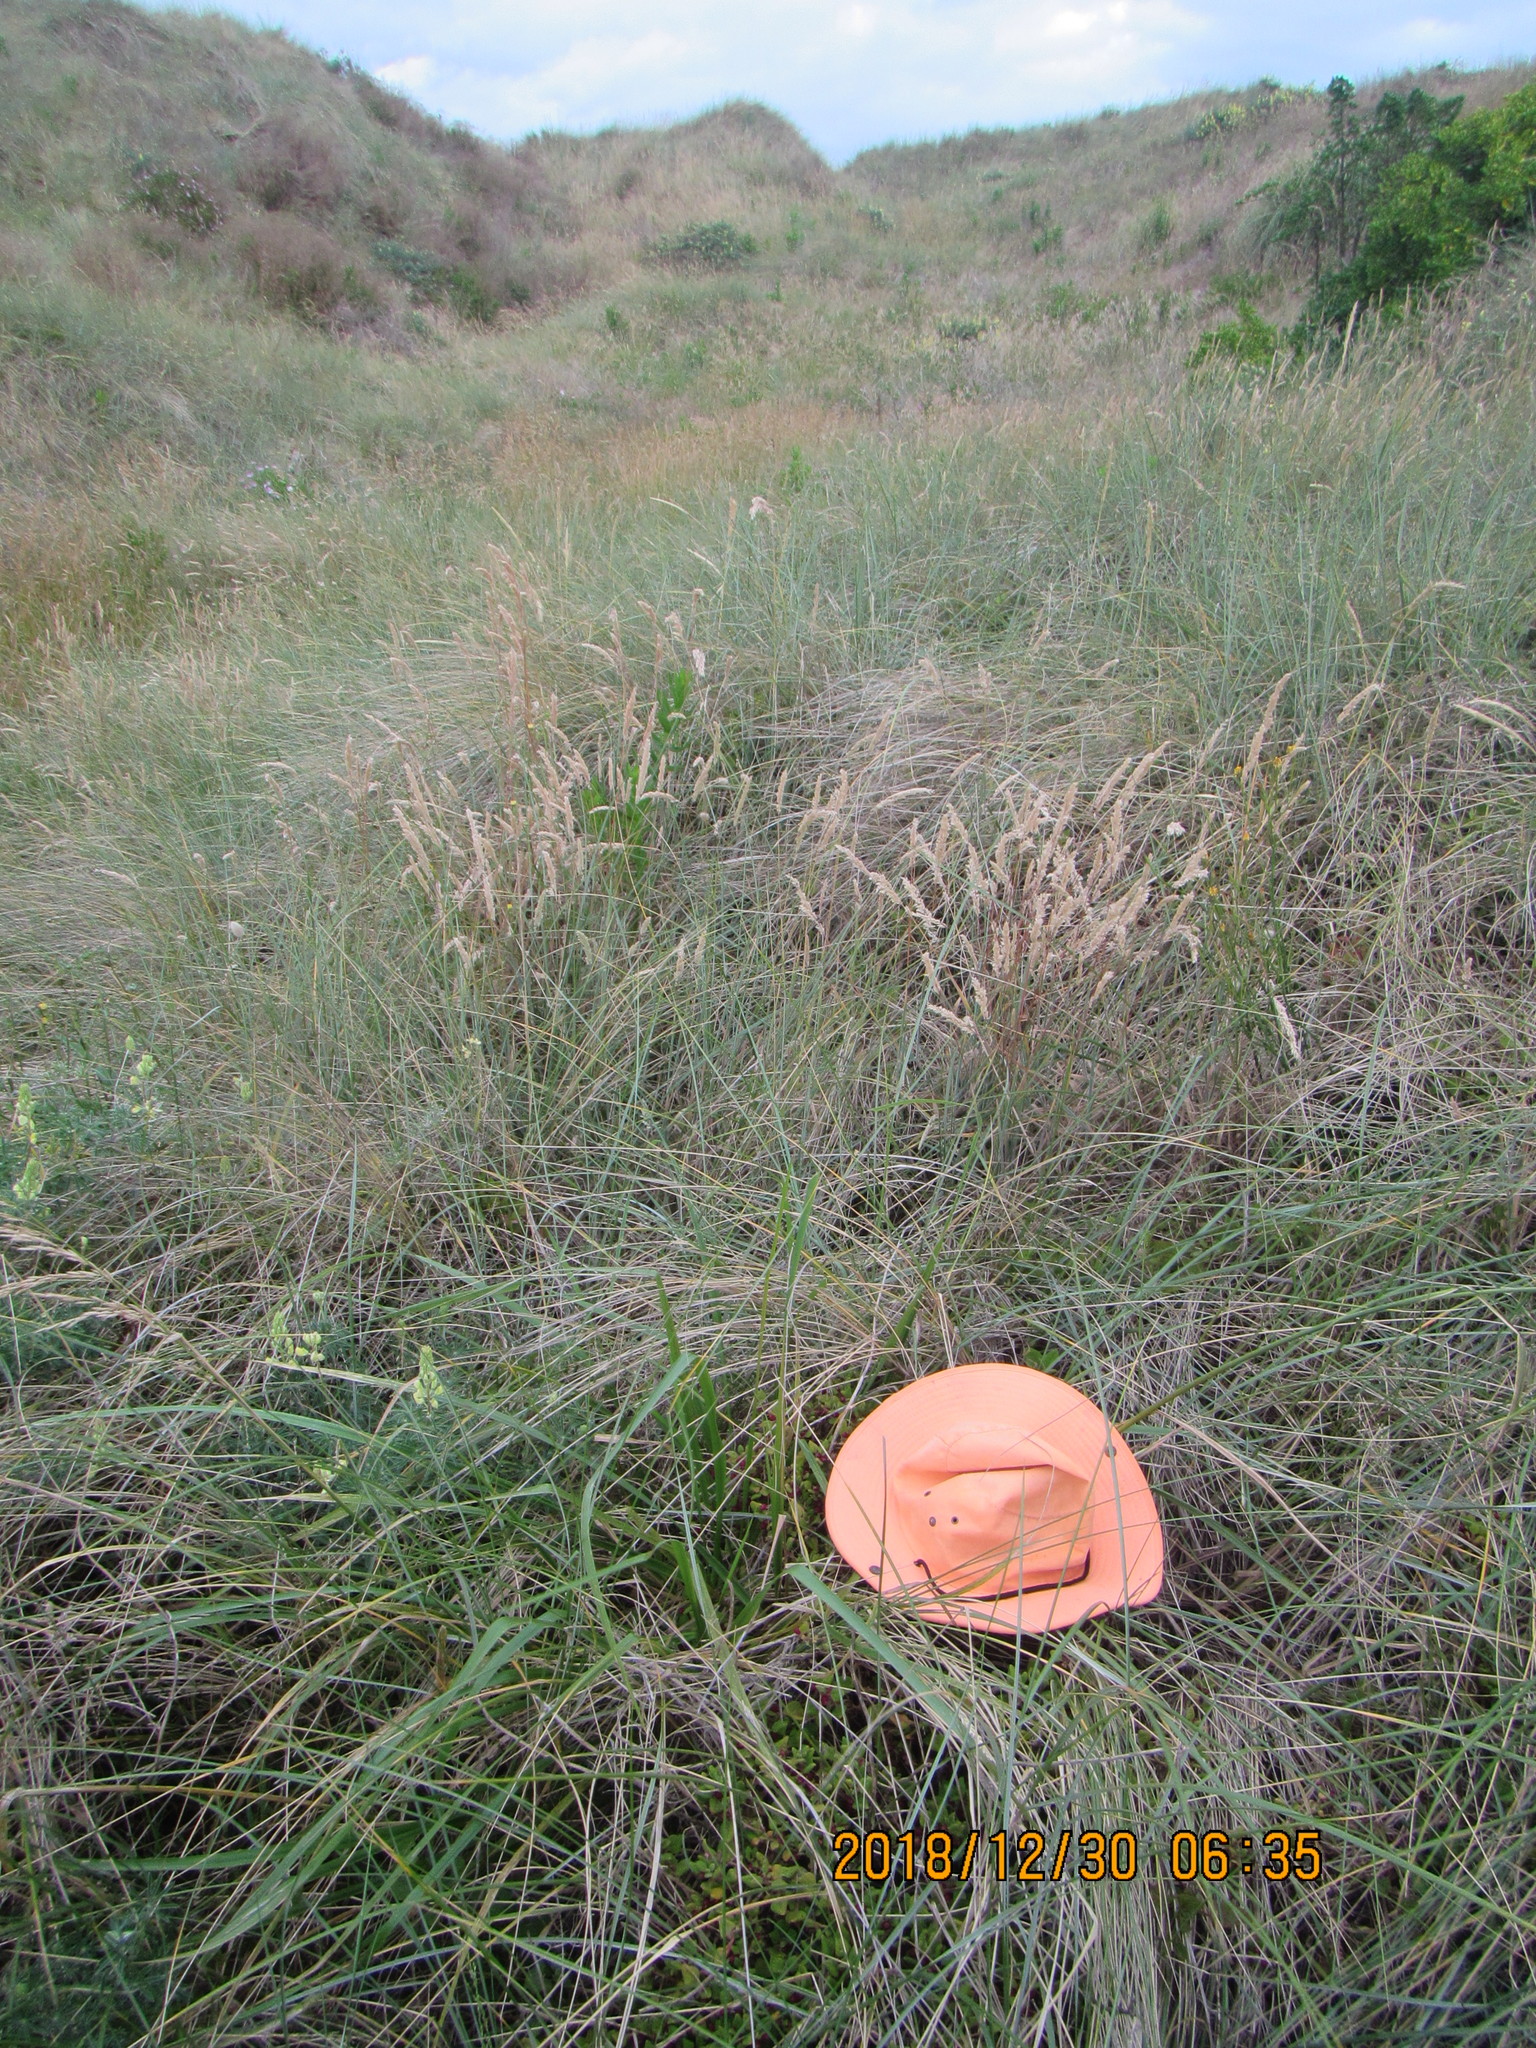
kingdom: Plantae
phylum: Tracheophyta
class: Magnoliopsida
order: Caryophyllales
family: Aizoaceae
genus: Tetragonia
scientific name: Tetragonia implexicoma
